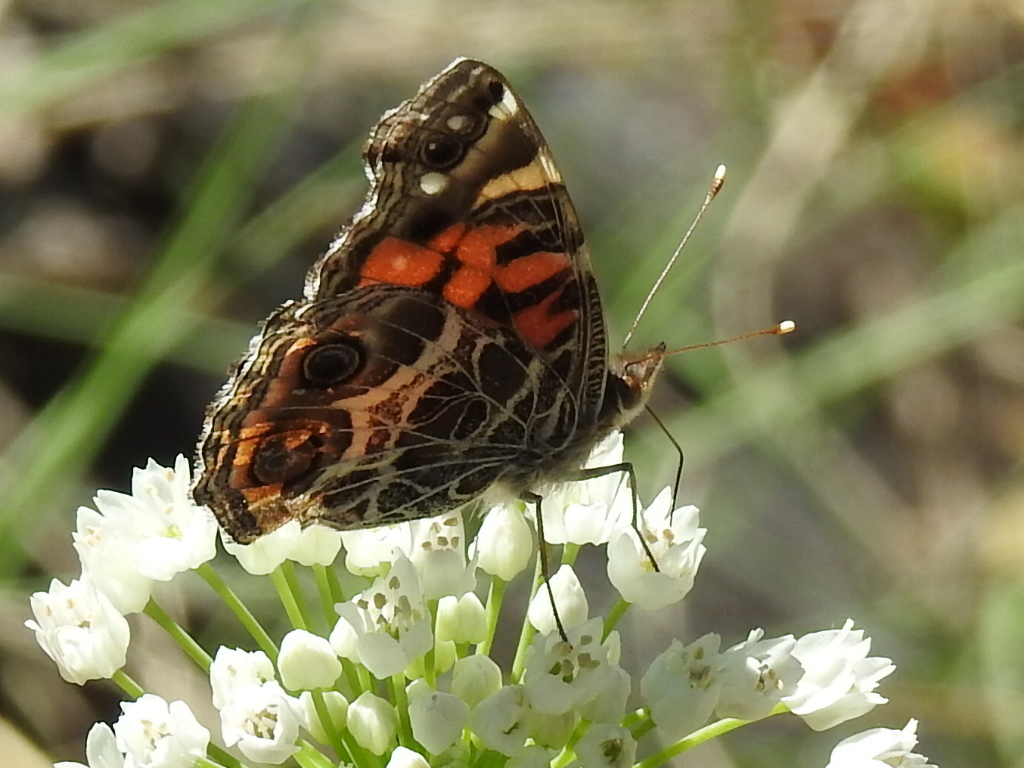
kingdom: Animalia
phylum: Arthropoda
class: Insecta
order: Lepidoptera
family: Nymphalidae
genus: Vanessa
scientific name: Vanessa virginiensis
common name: American lady
